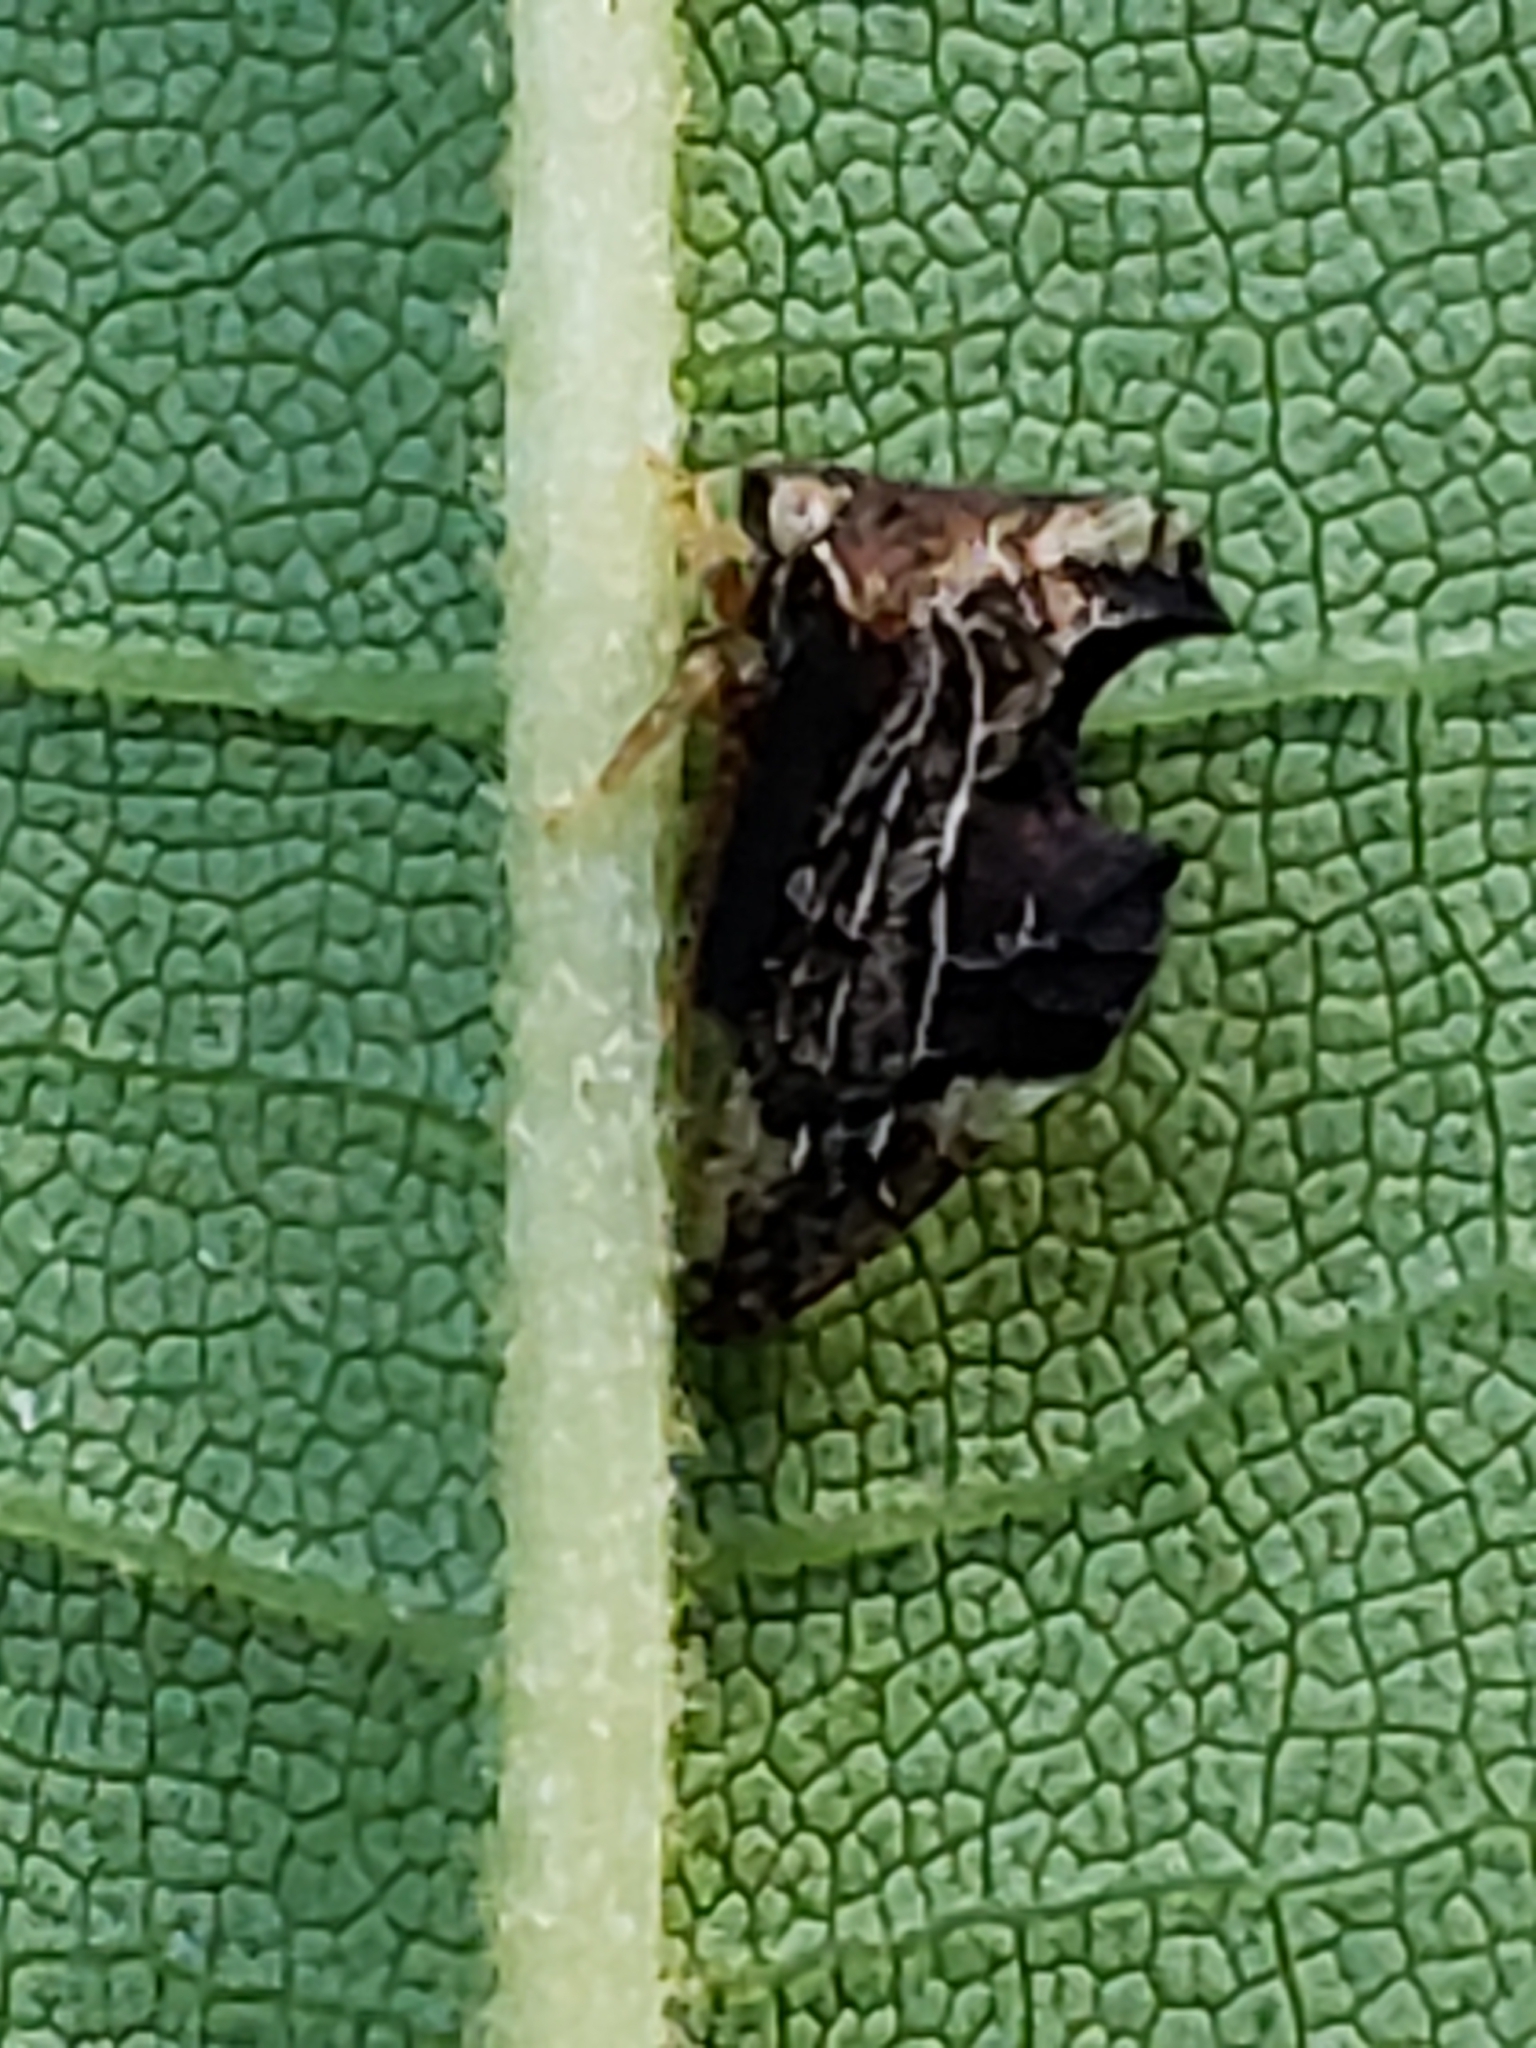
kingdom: Animalia
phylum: Arthropoda
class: Insecta
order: Hemiptera
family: Membracidae
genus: Entylia
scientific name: Entylia carinata
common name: Keeled treehopper
